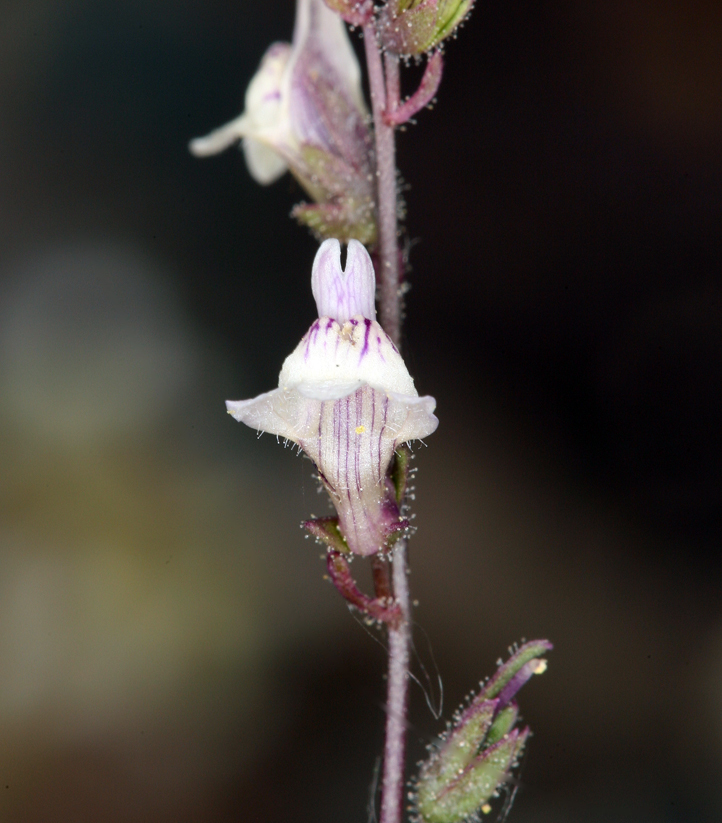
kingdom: Plantae
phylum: Tracheophyta
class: Magnoliopsida
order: Lamiales
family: Plantaginaceae
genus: Sairocarpus
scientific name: Sairocarpus kingii
